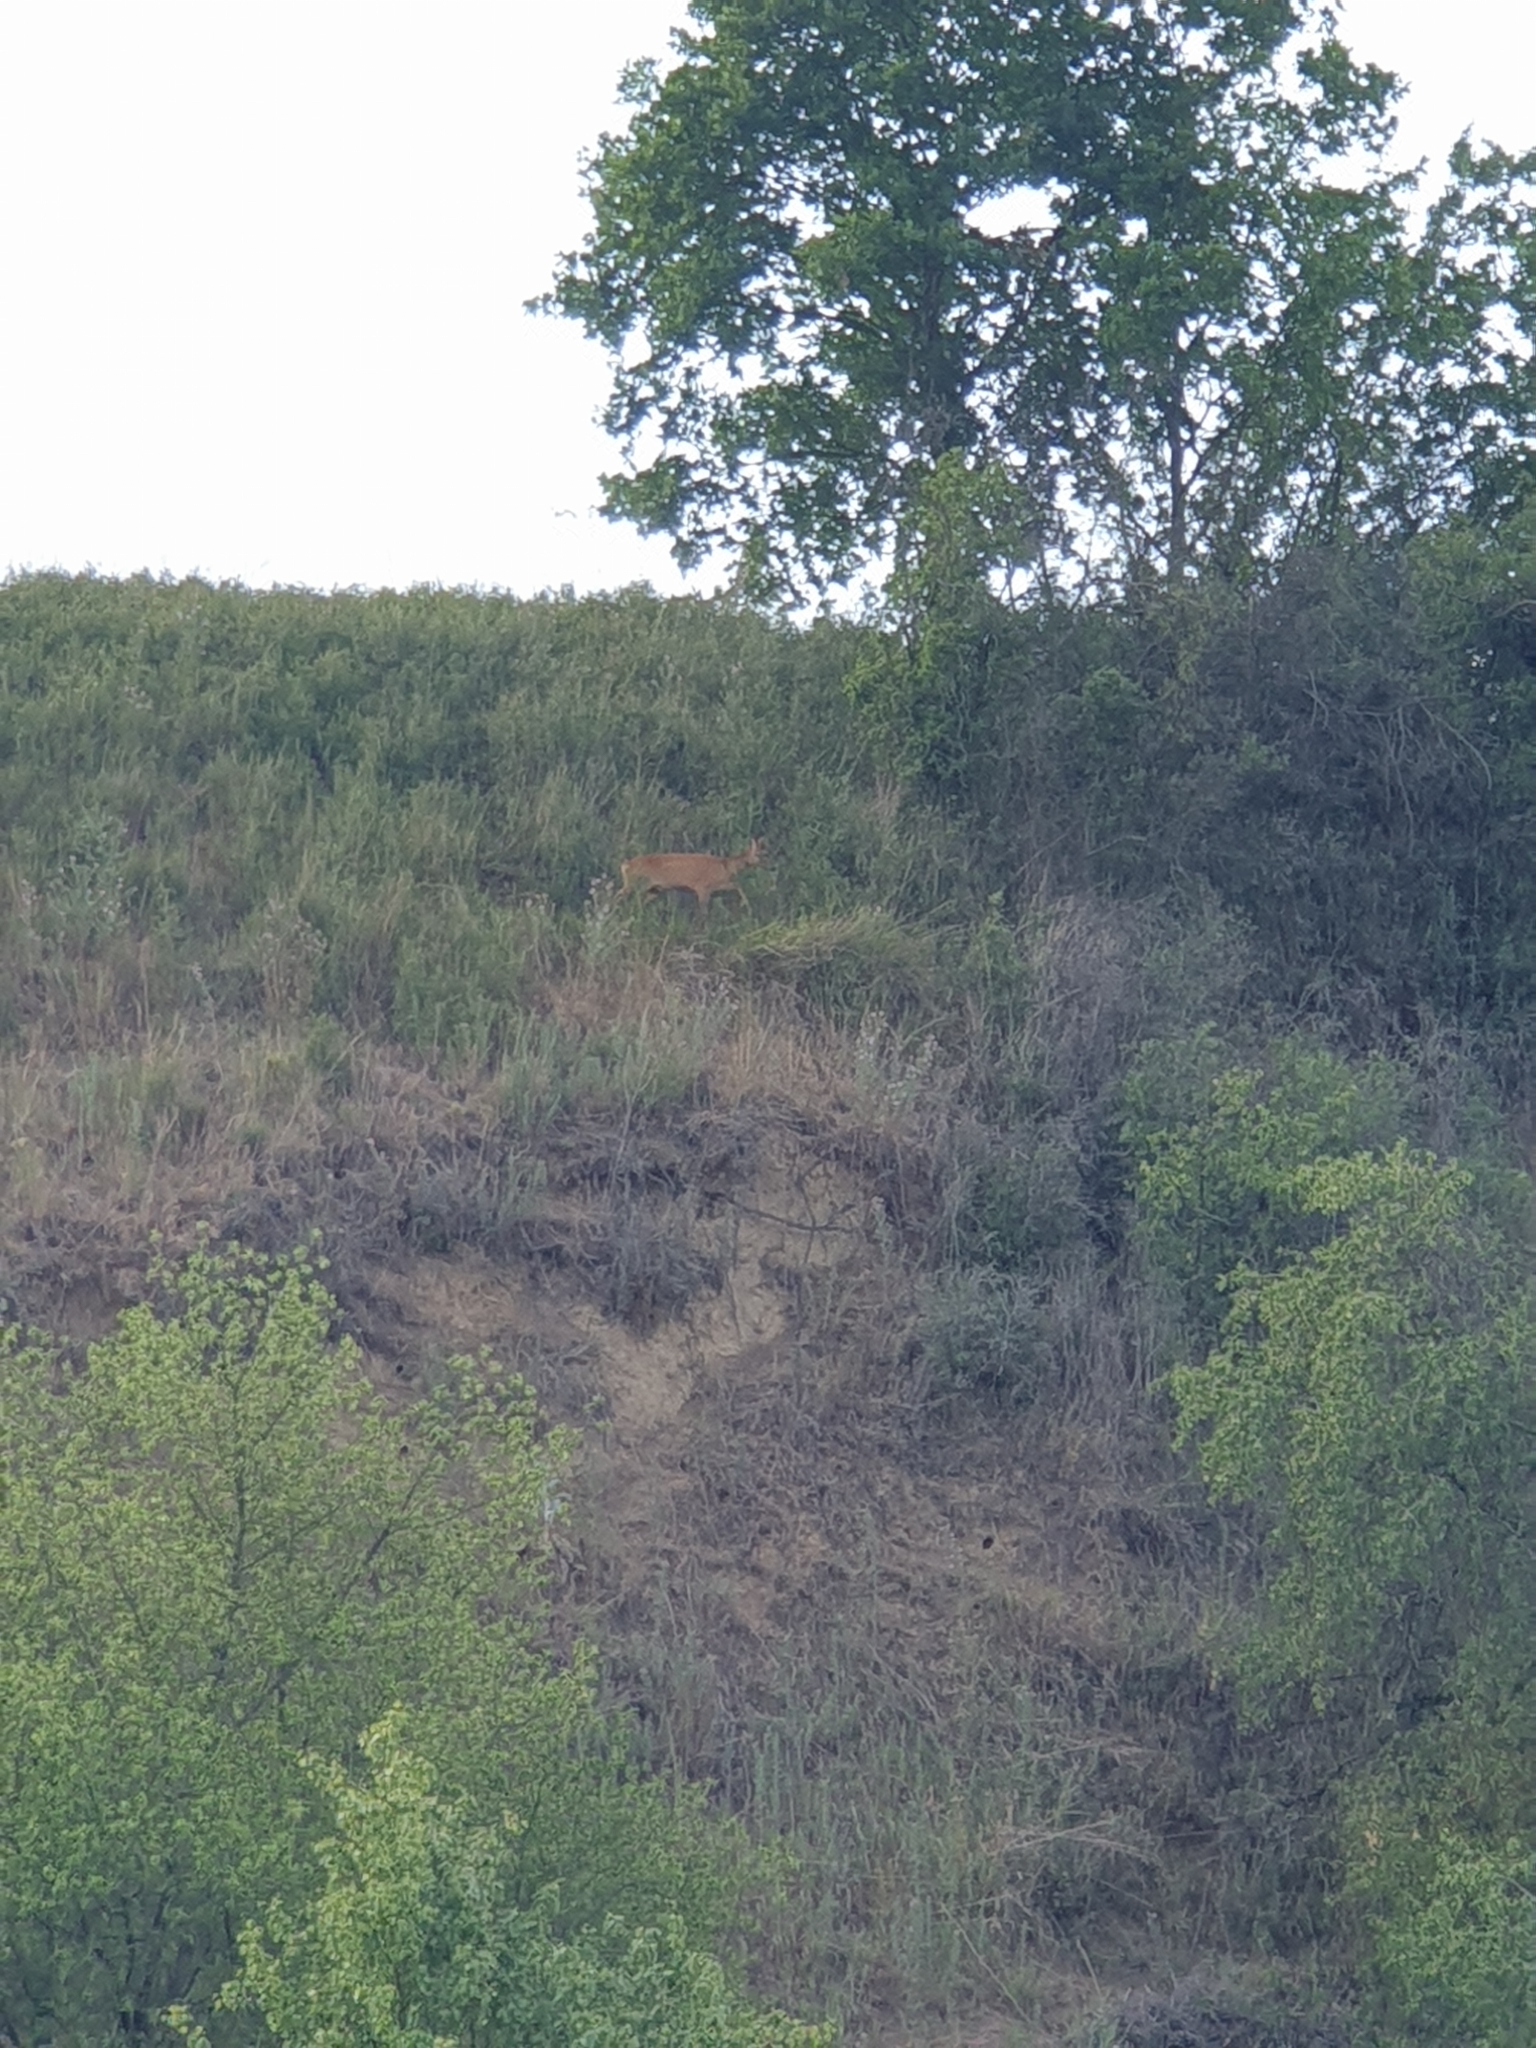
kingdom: Animalia
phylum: Chordata
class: Mammalia
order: Artiodactyla
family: Cervidae
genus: Capreolus
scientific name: Capreolus capreolus
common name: Western roe deer
